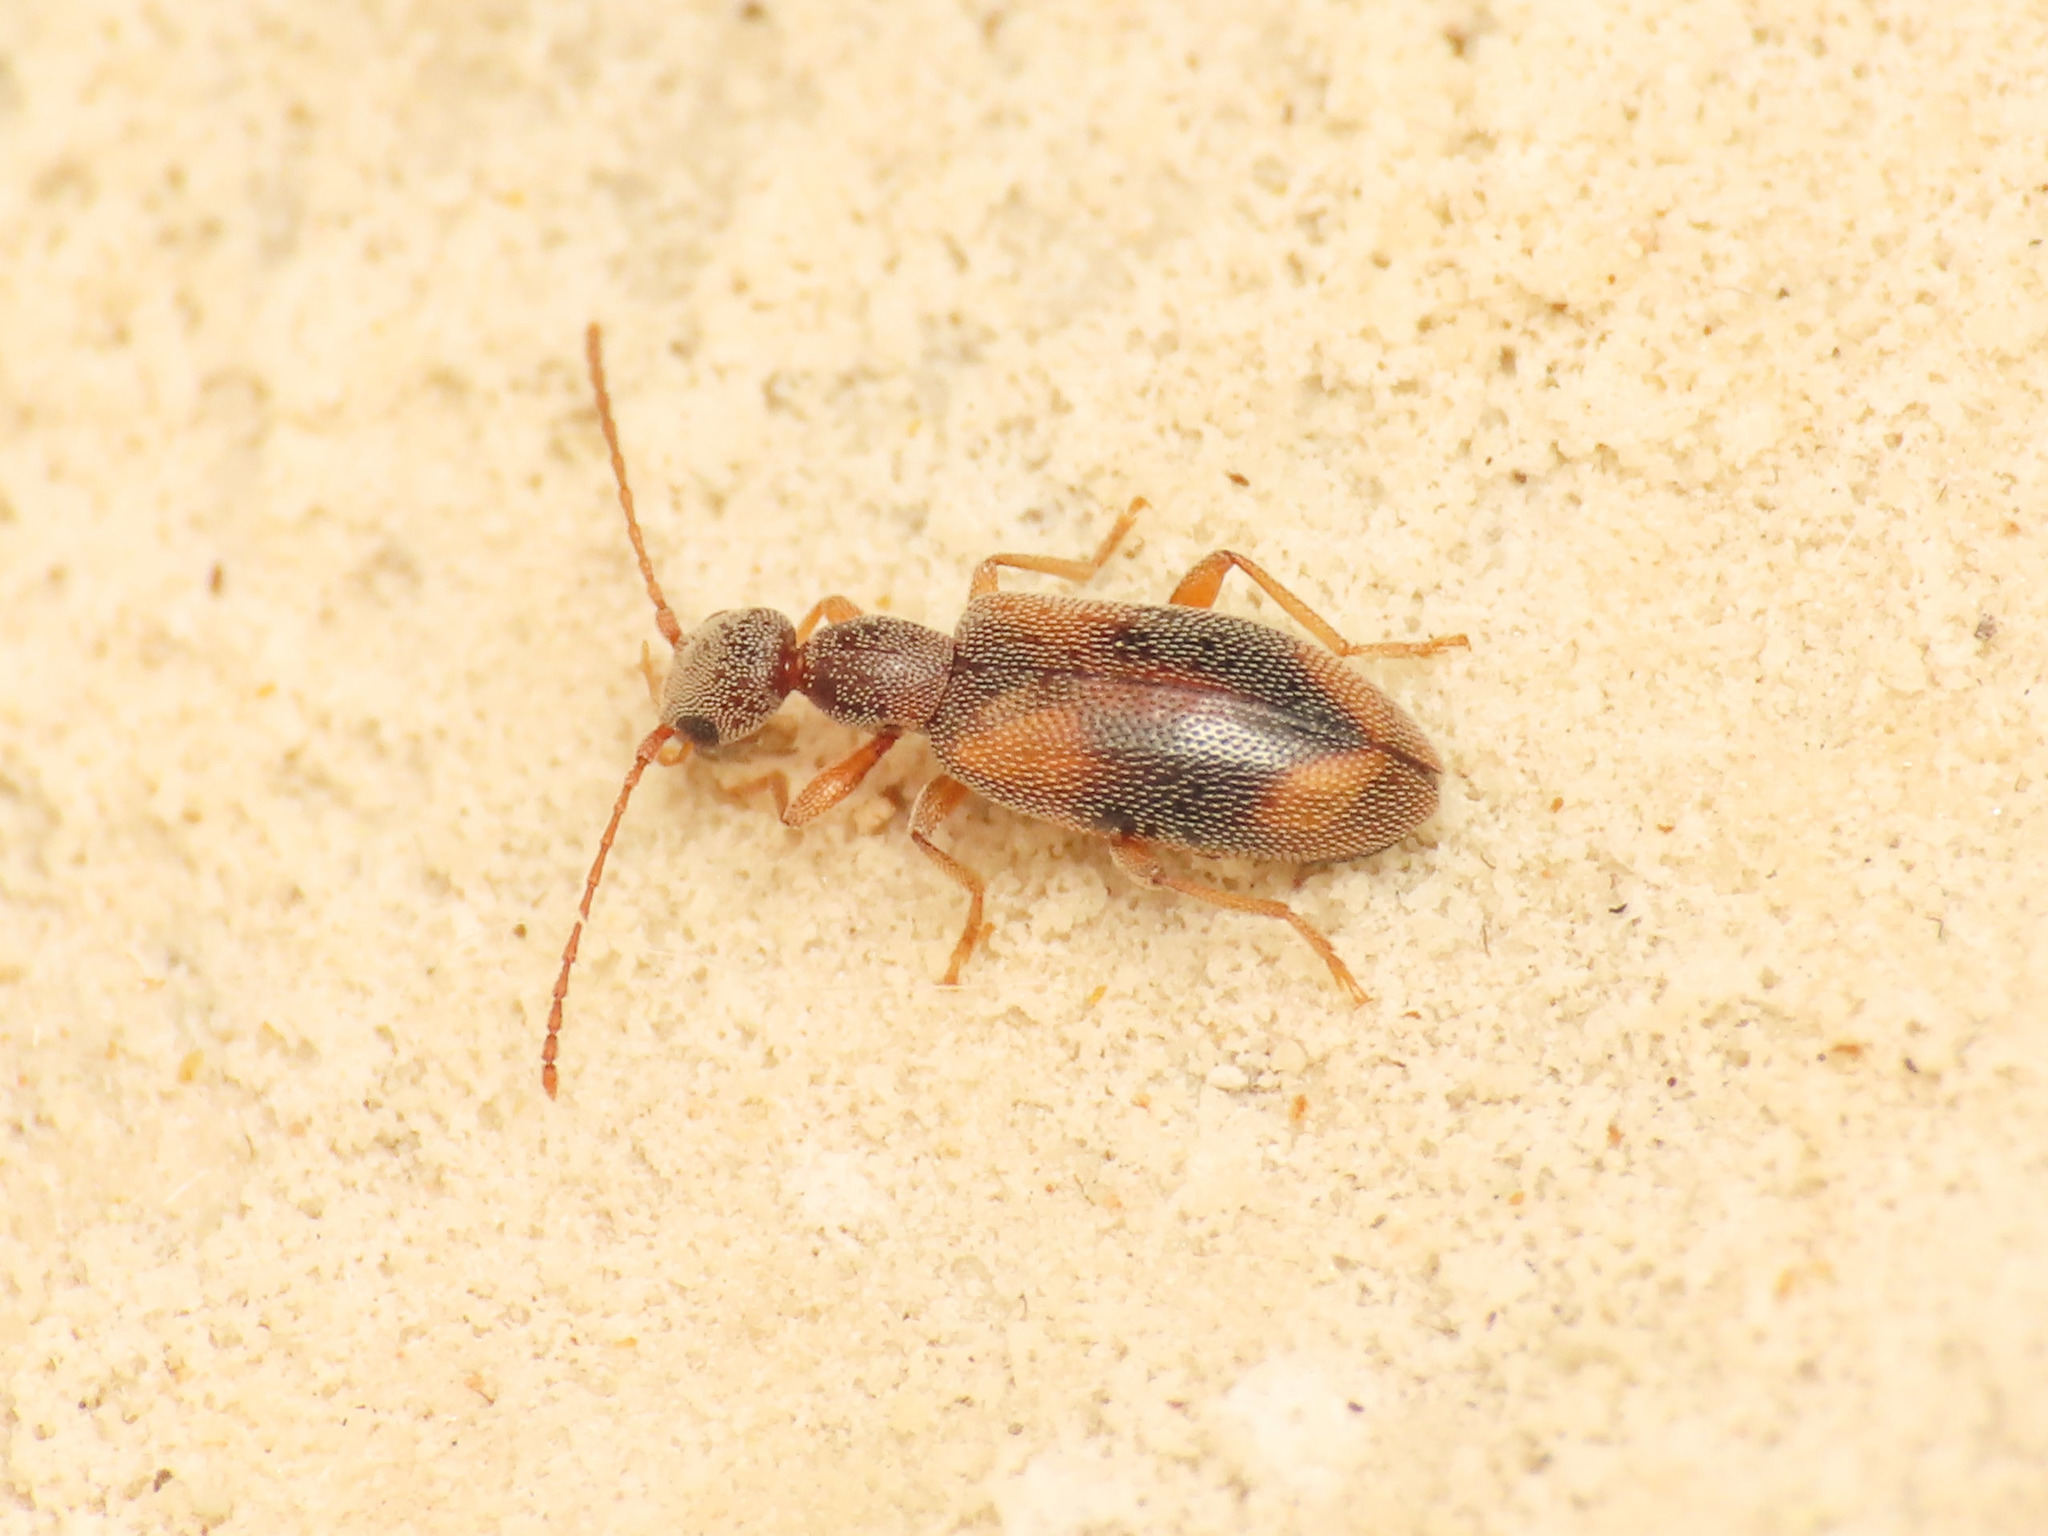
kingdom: Animalia
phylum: Arthropoda
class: Insecta
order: Coleoptera
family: Anthicidae
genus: Endomia
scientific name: Endomia occipitalis
